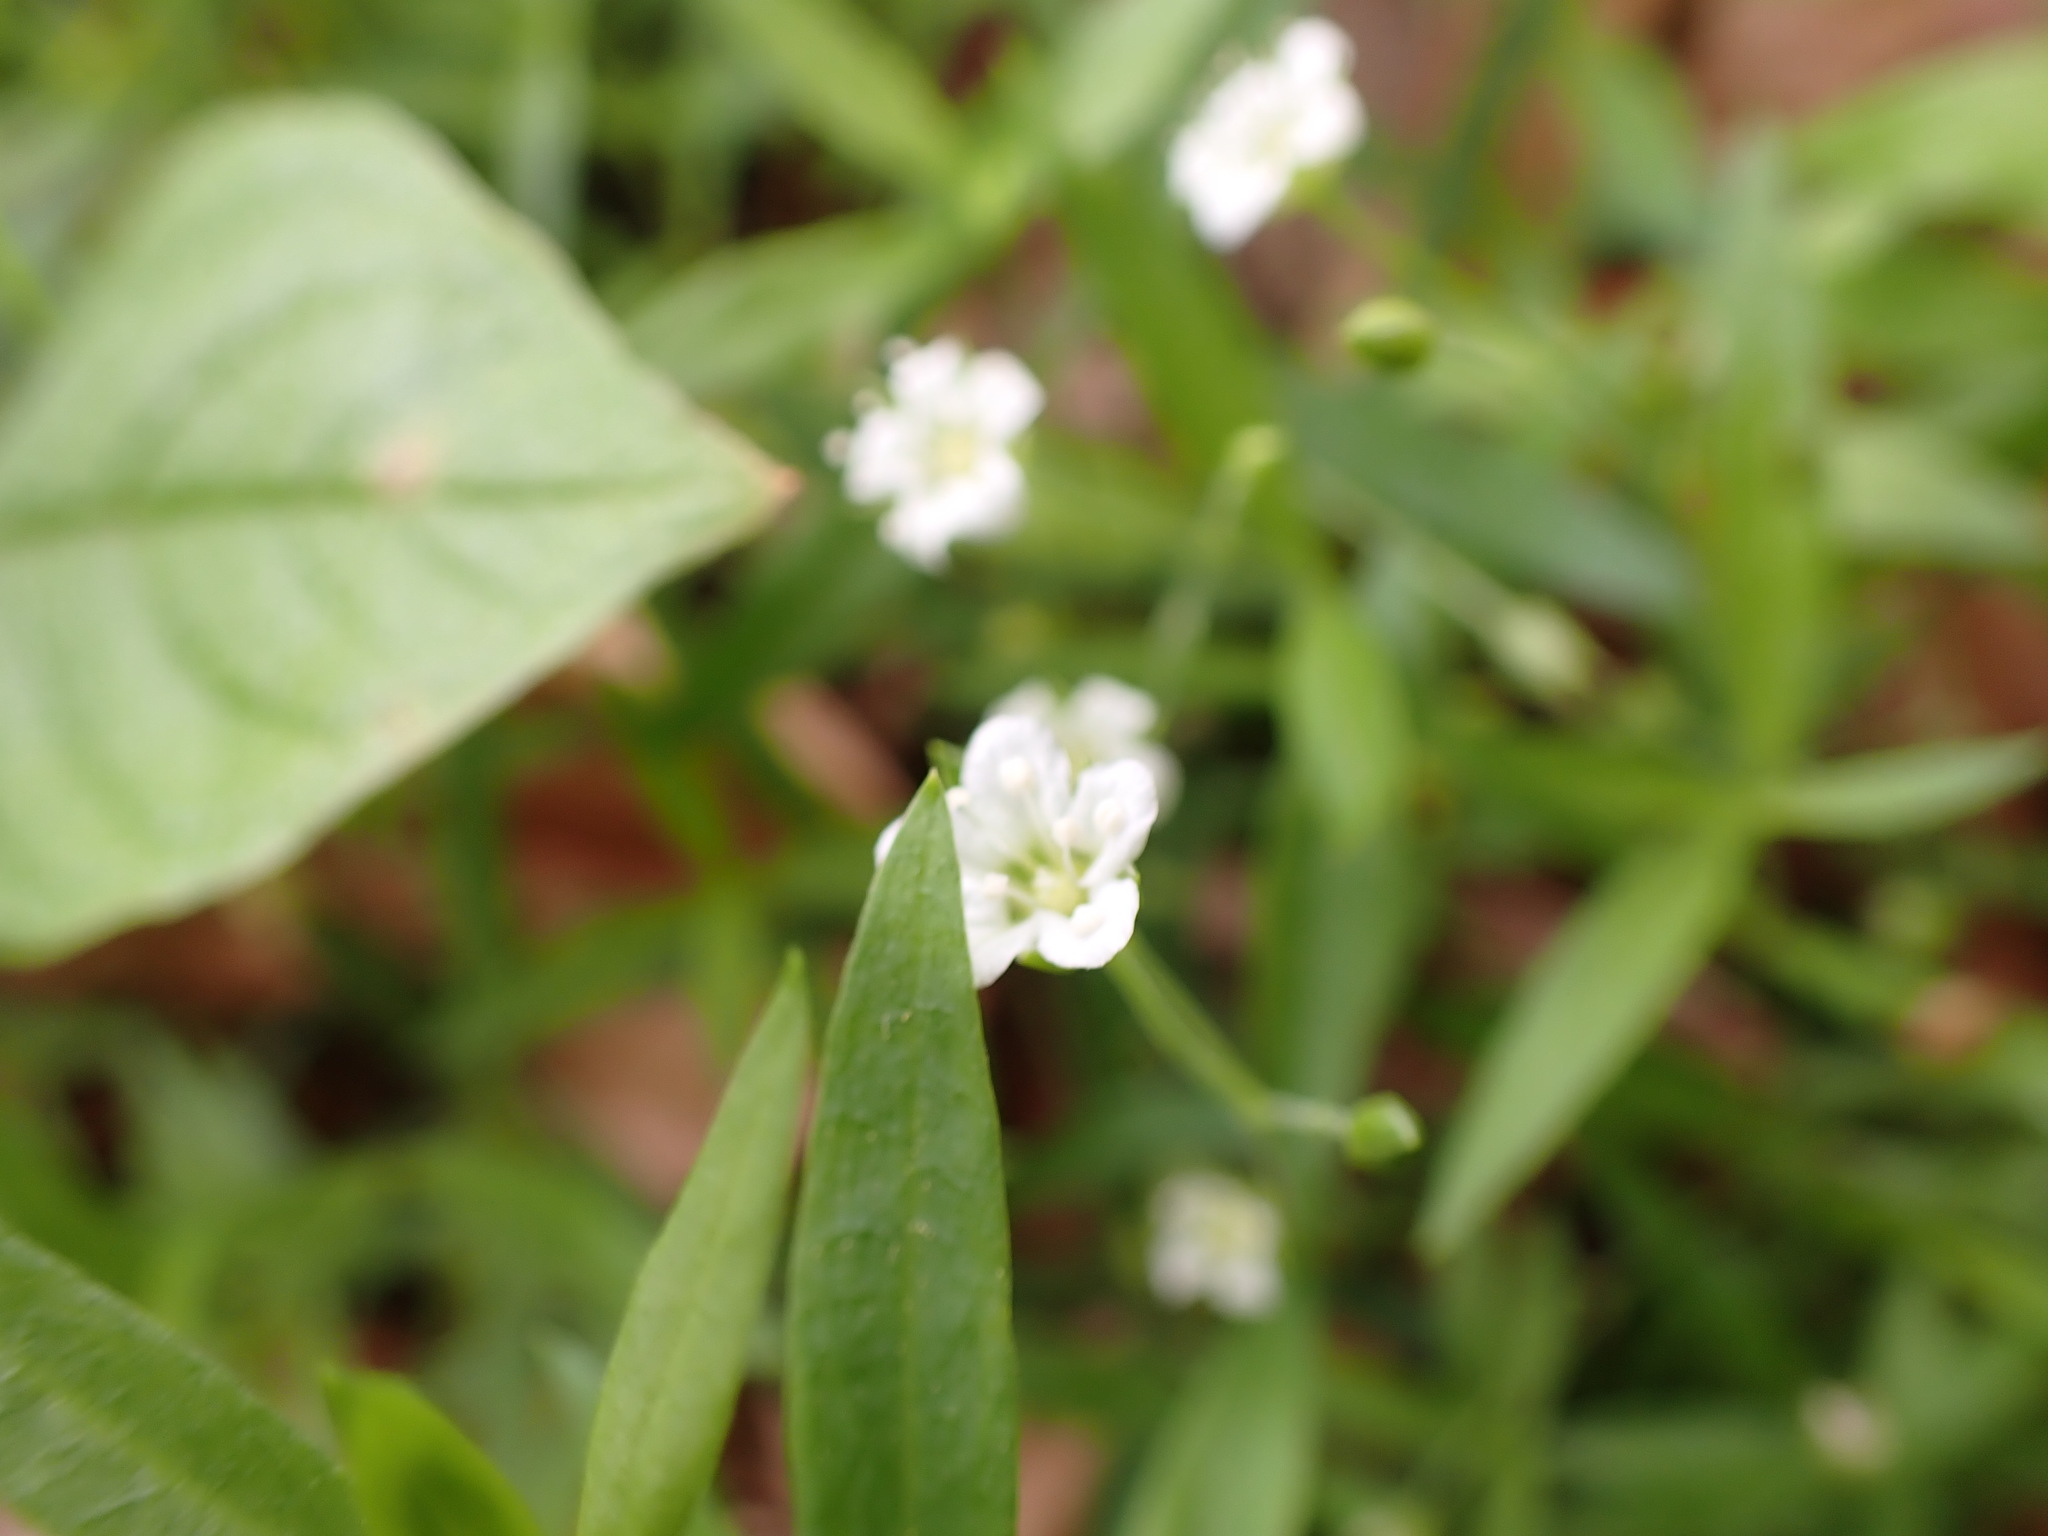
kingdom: Plantae
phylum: Tracheophyta
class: Magnoliopsida
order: Caryophyllales
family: Caryophyllaceae
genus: Moehringia
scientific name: Moehringia macrophylla
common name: Big-leaf sandwort
